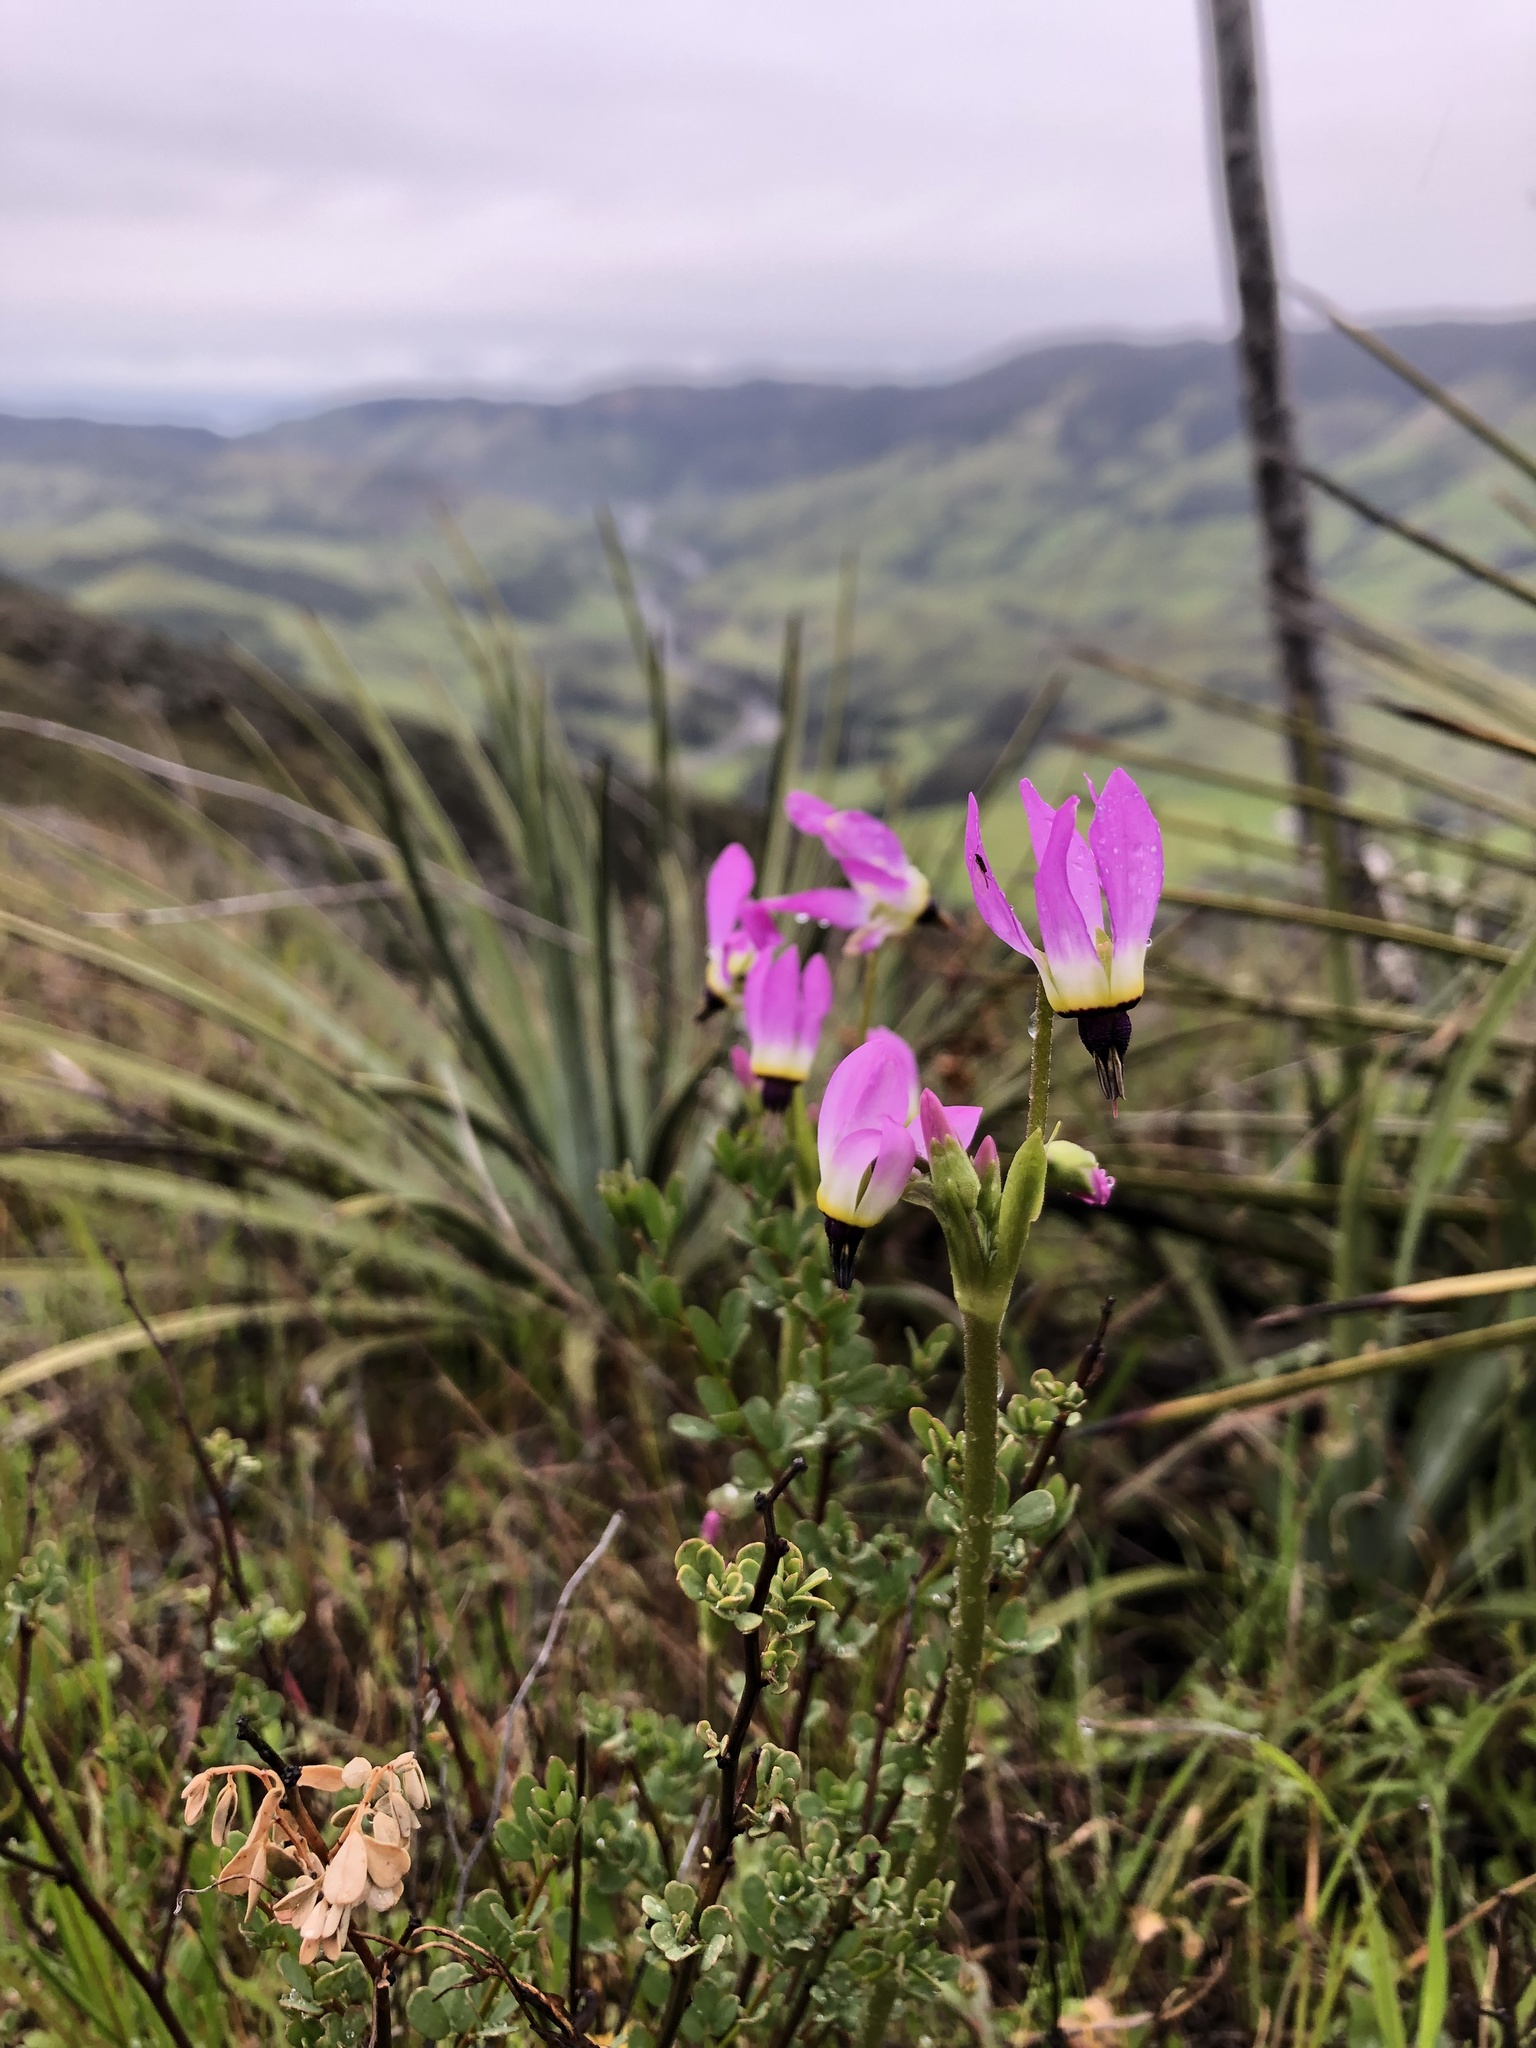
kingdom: Plantae
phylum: Tracheophyta
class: Magnoliopsida
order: Ericales
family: Primulaceae
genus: Dodecatheon
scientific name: Dodecatheon clevelandii
